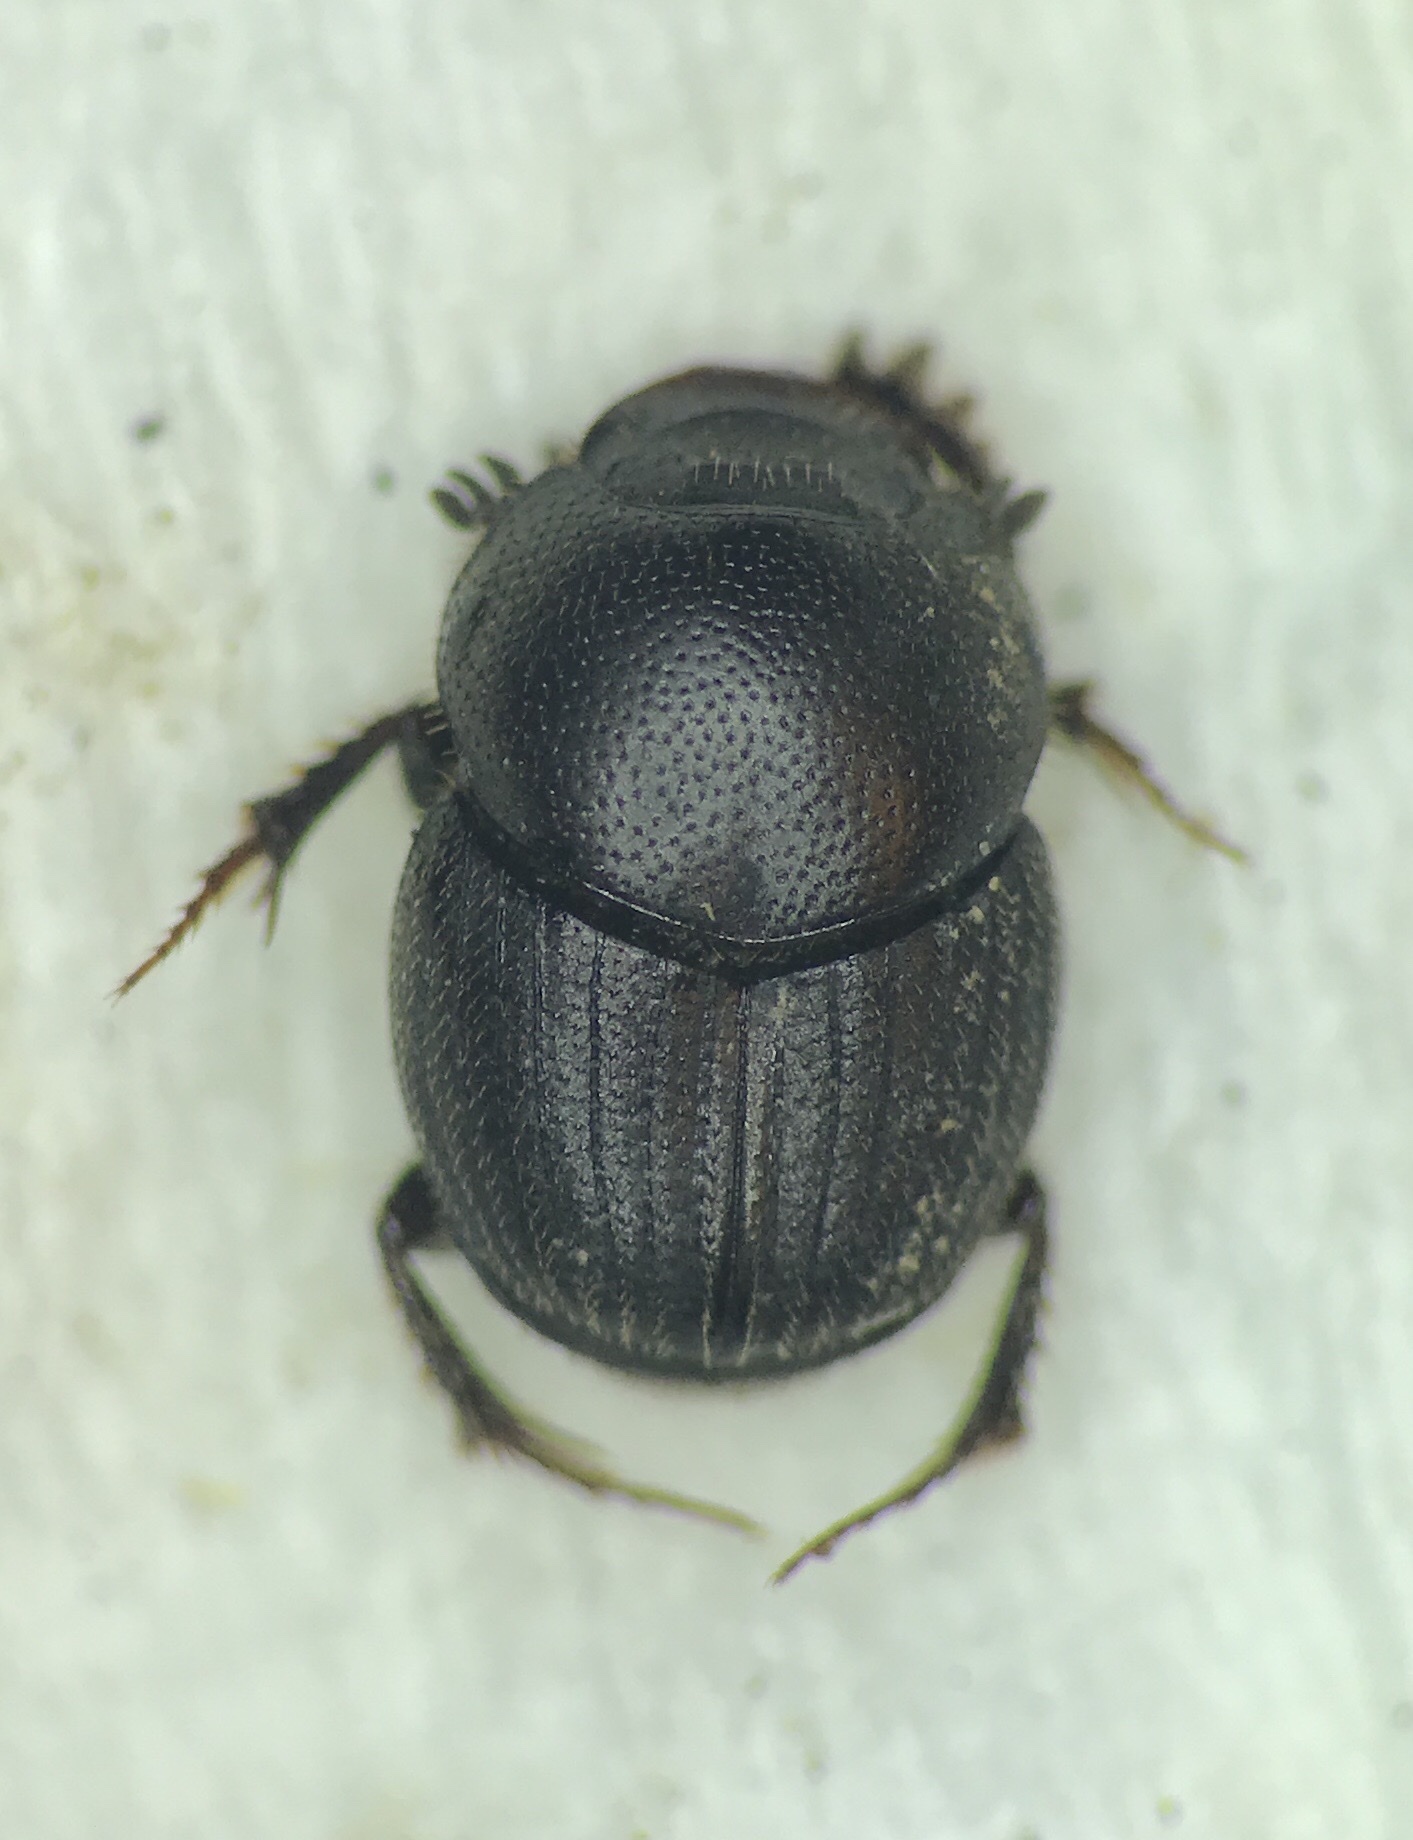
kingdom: Animalia
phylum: Arthropoda
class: Insecta
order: Coleoptera
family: Scarabaeidae
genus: Onthophagus
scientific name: Onthophagus pennsylvanicus
